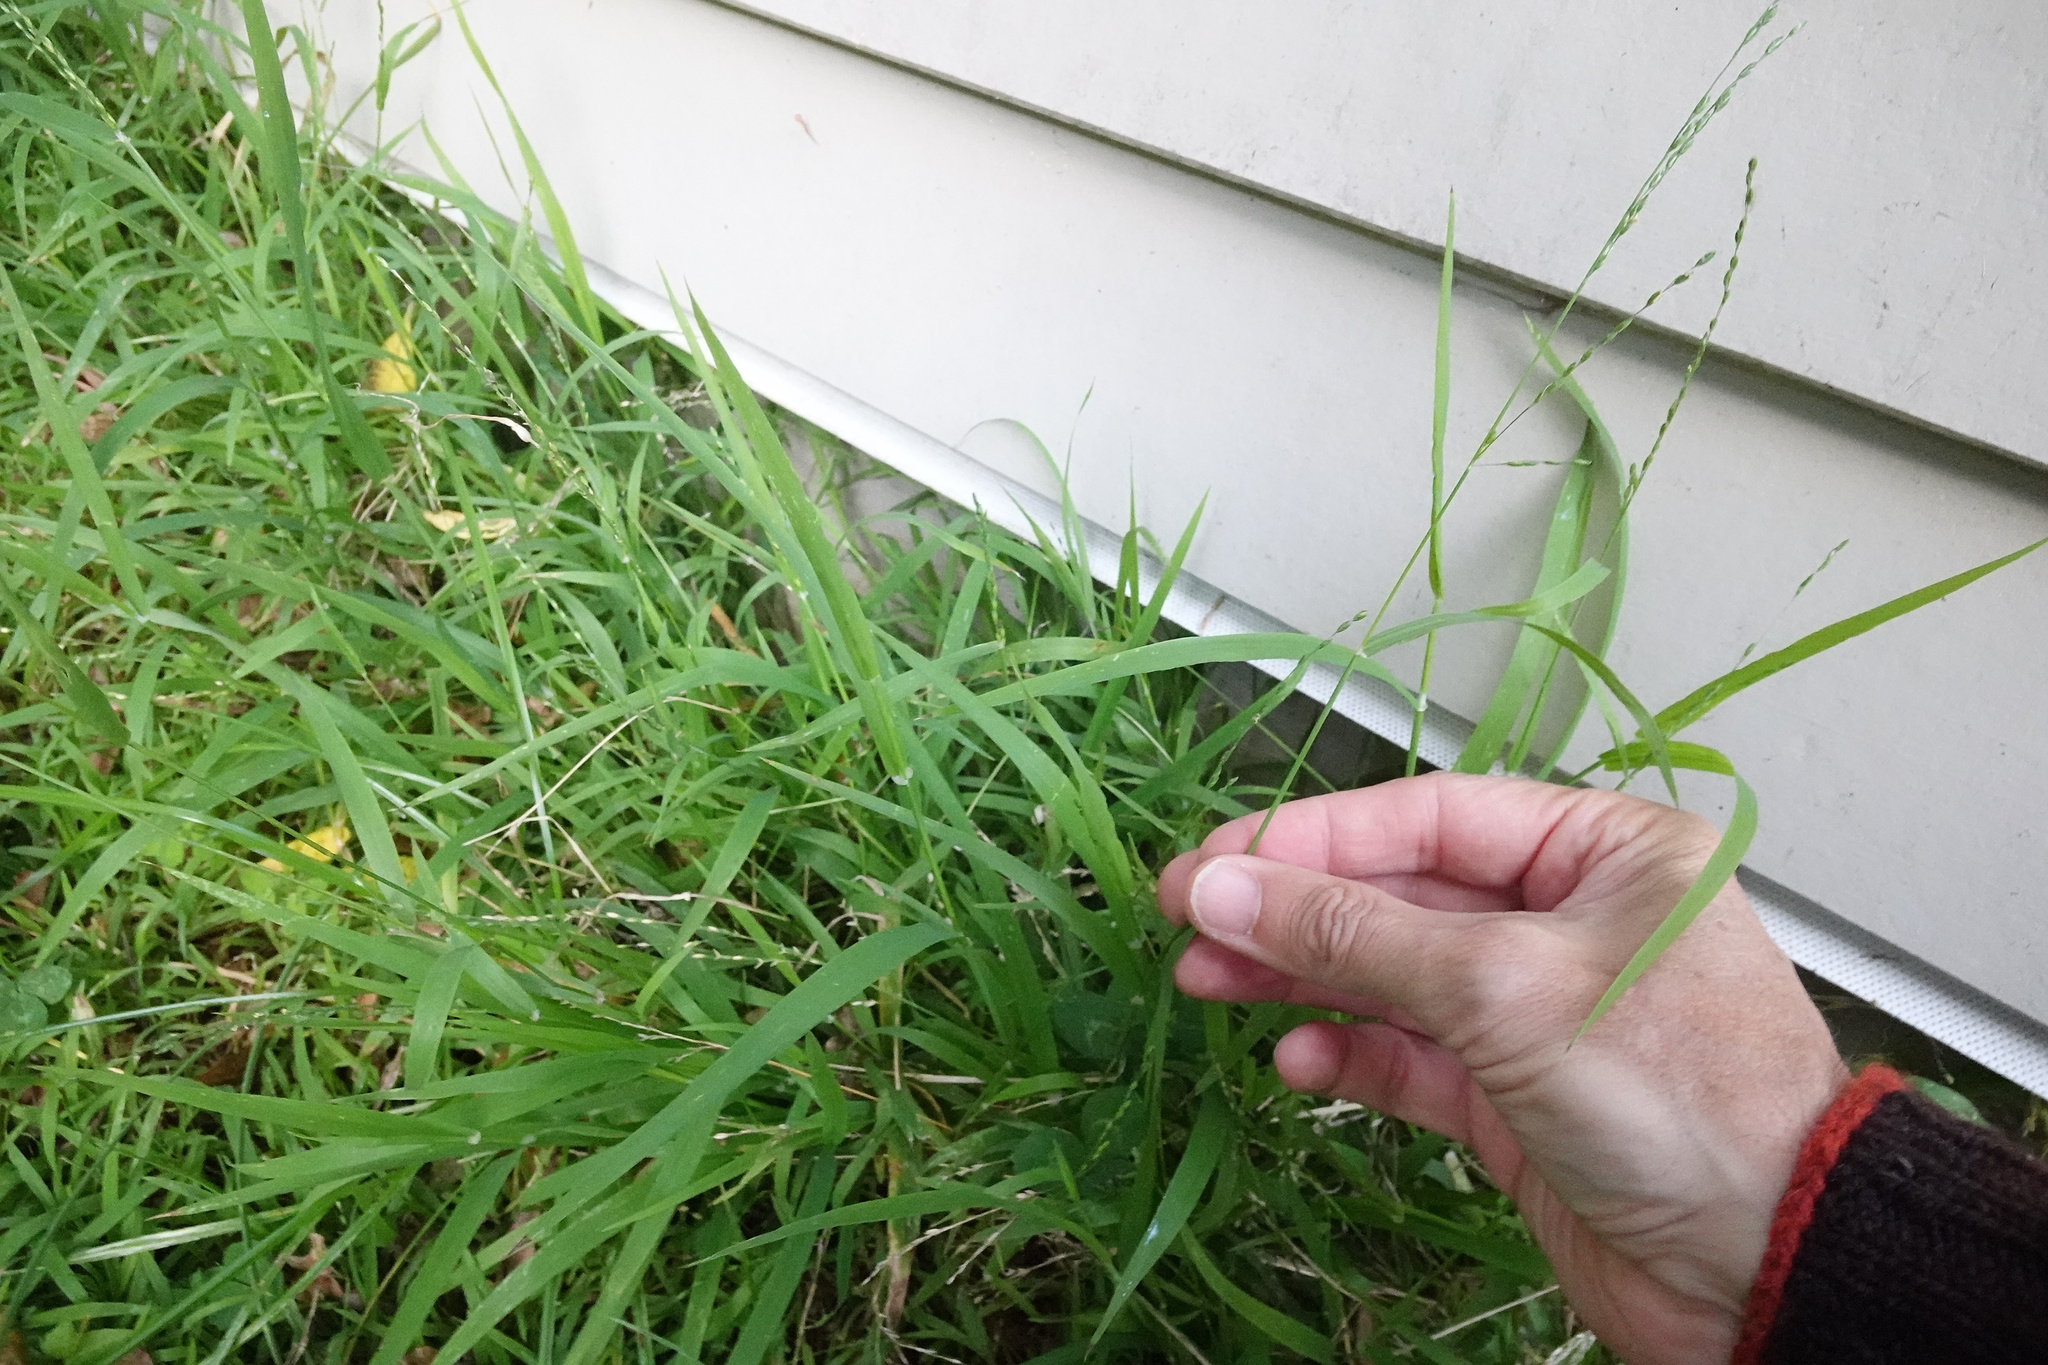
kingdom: Plantae
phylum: Tracheophyta
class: Liliopsida
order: Poales
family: Poaceae
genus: Ehrharta
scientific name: Ehrharta erecta
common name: Panic veldtgrass
